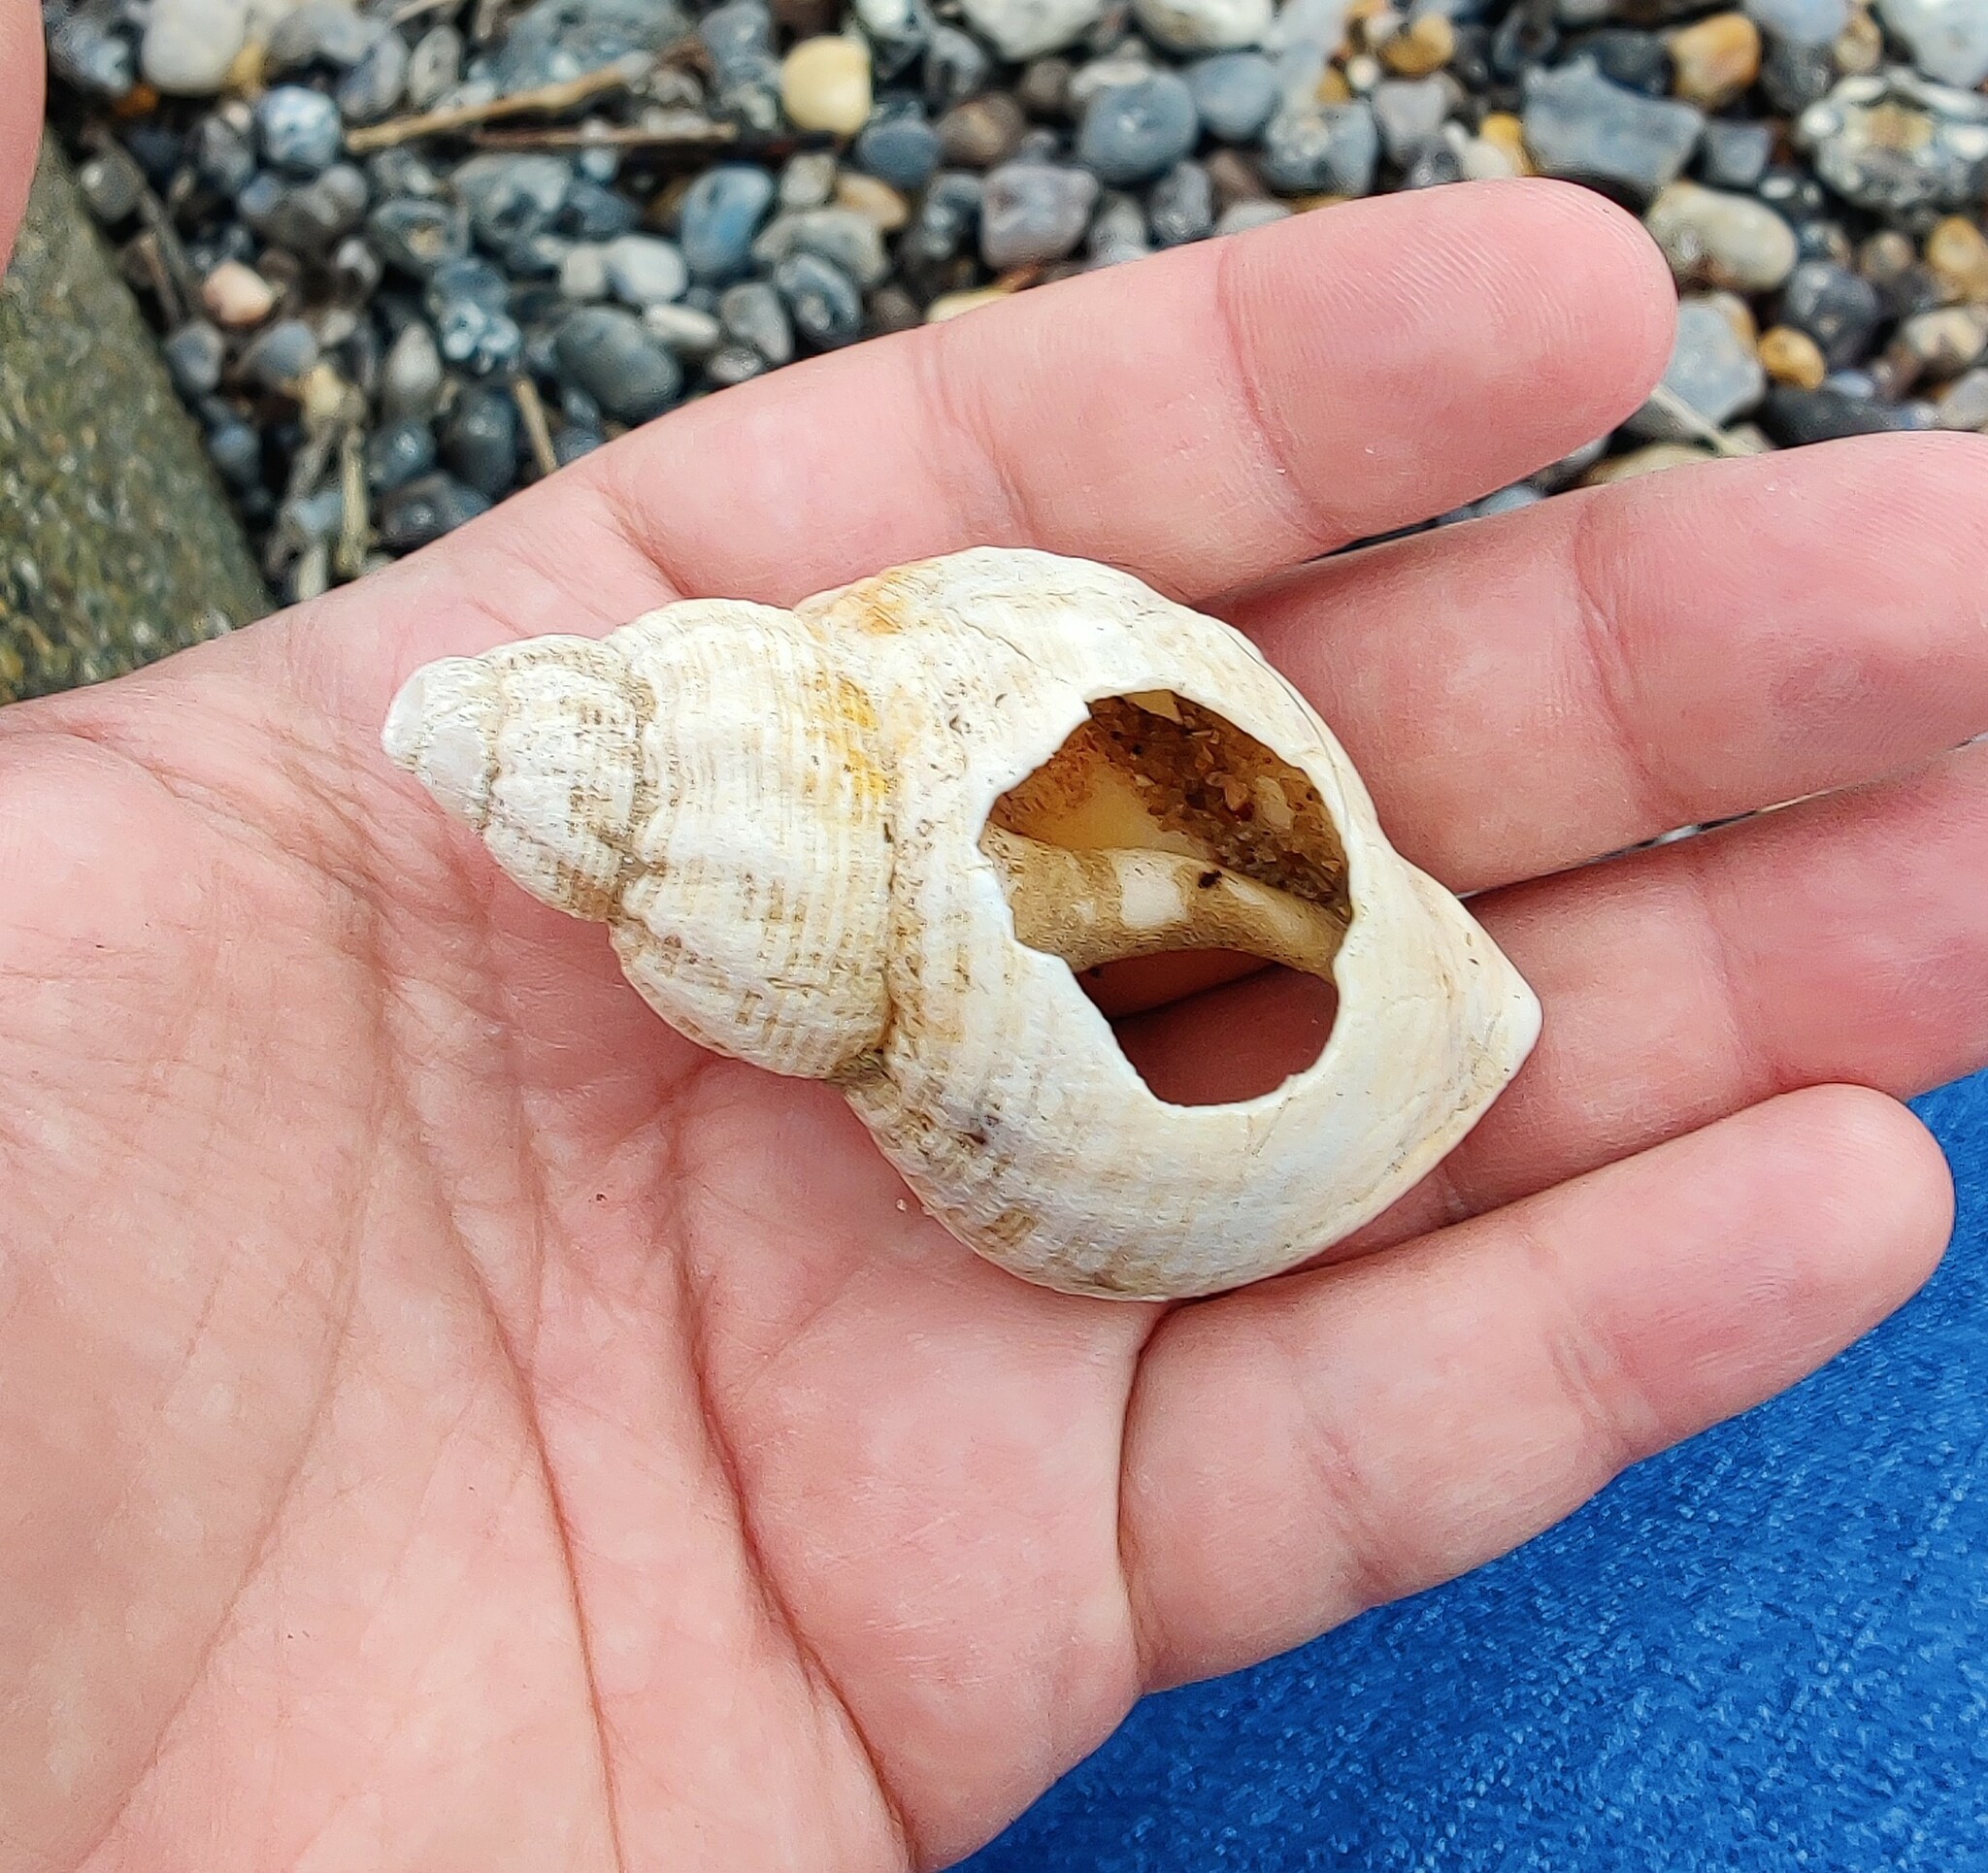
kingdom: Animalia
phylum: Mollusca
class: Gastropoda
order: Neogastropoda
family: Buccinidae
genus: Buccinum
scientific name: Buccinum undatum
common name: Common whelk
